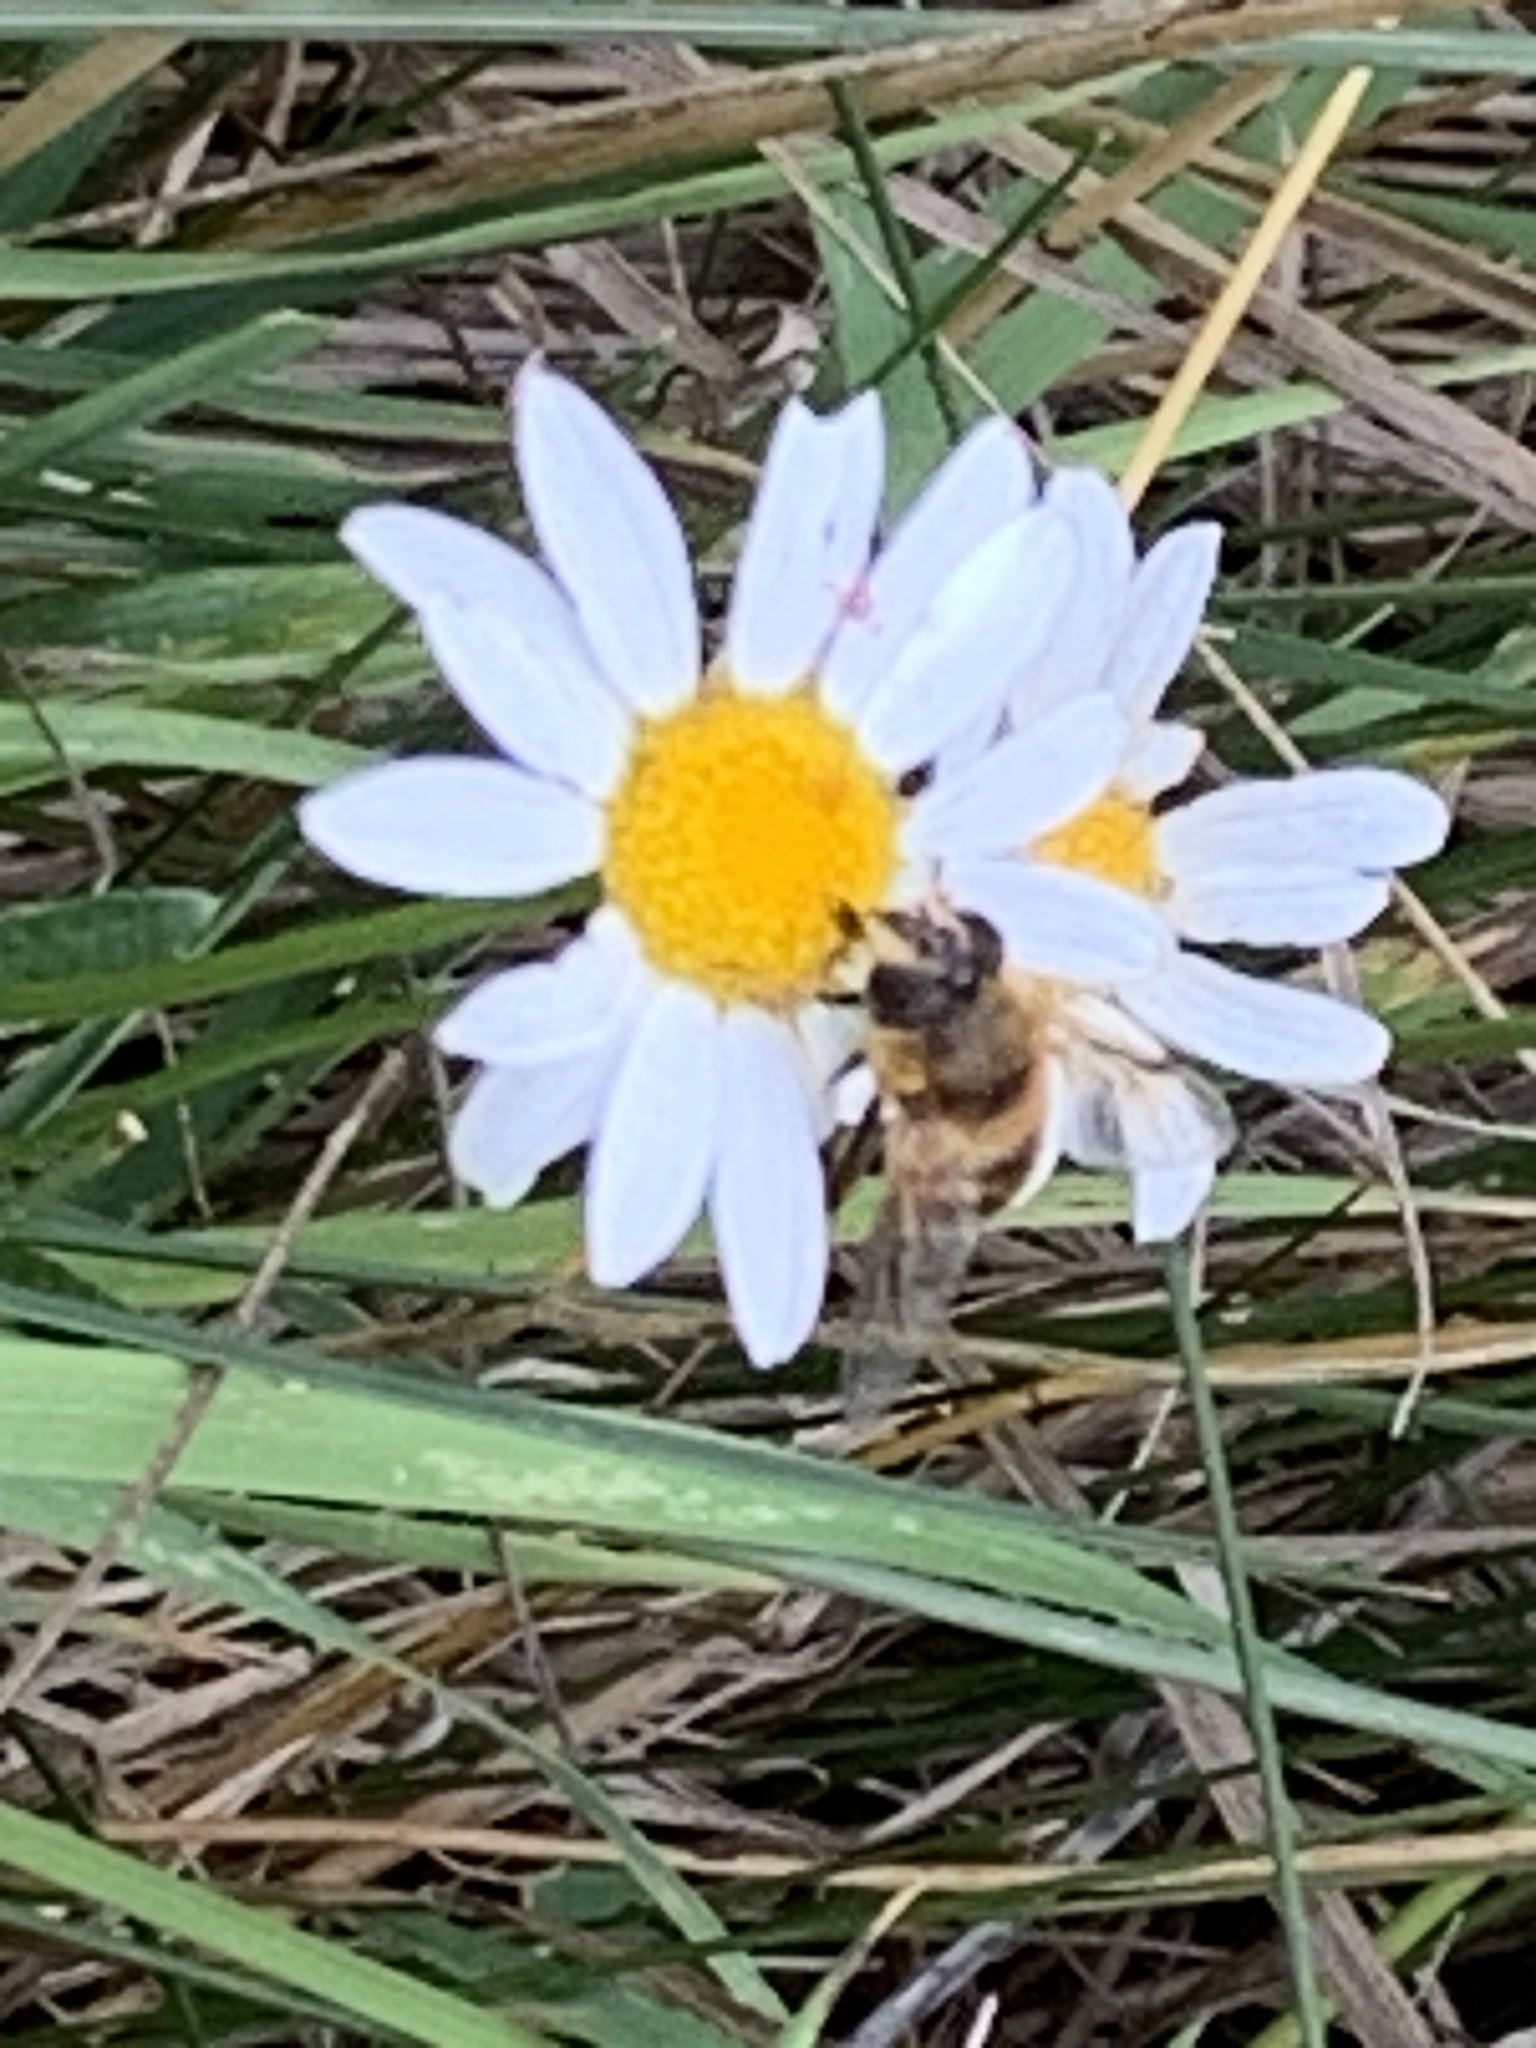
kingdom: Animalia
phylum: Arthropoda
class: Insecta
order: Diptera
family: Syrphidae
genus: Eristalis
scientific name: Eristalis tenax
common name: Drone fly
